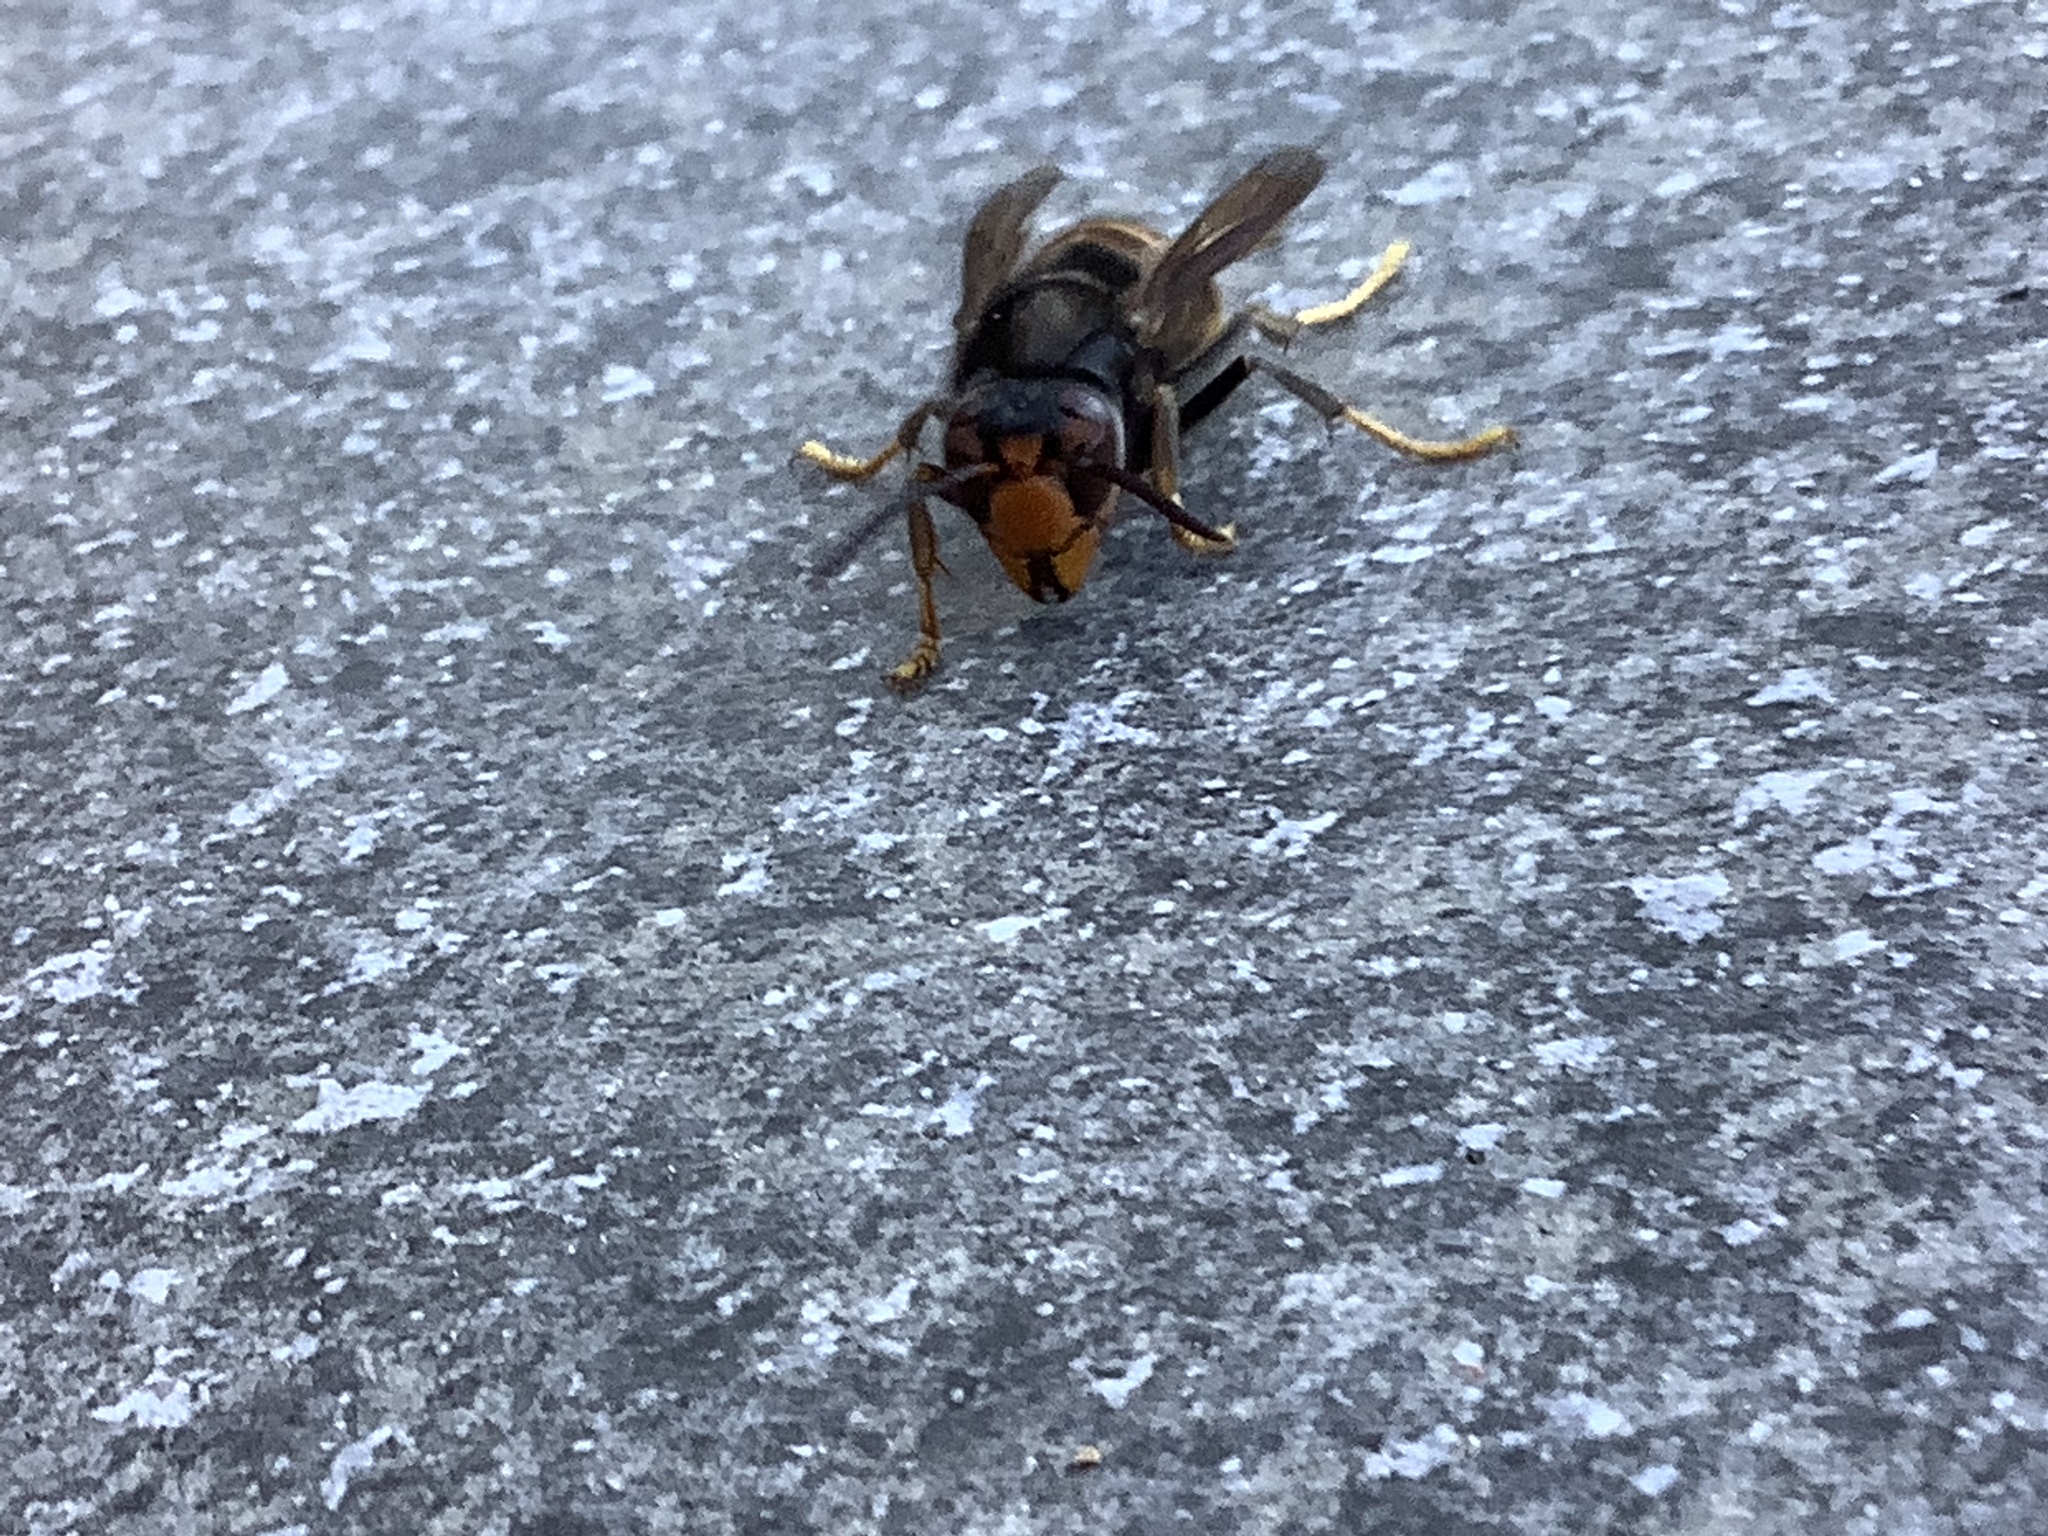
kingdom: Animalia
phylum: Arthropoda
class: Insecta
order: Hymenoptera
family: Vespidae
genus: Vespa
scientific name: Vespa velutina
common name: Asian hornet
